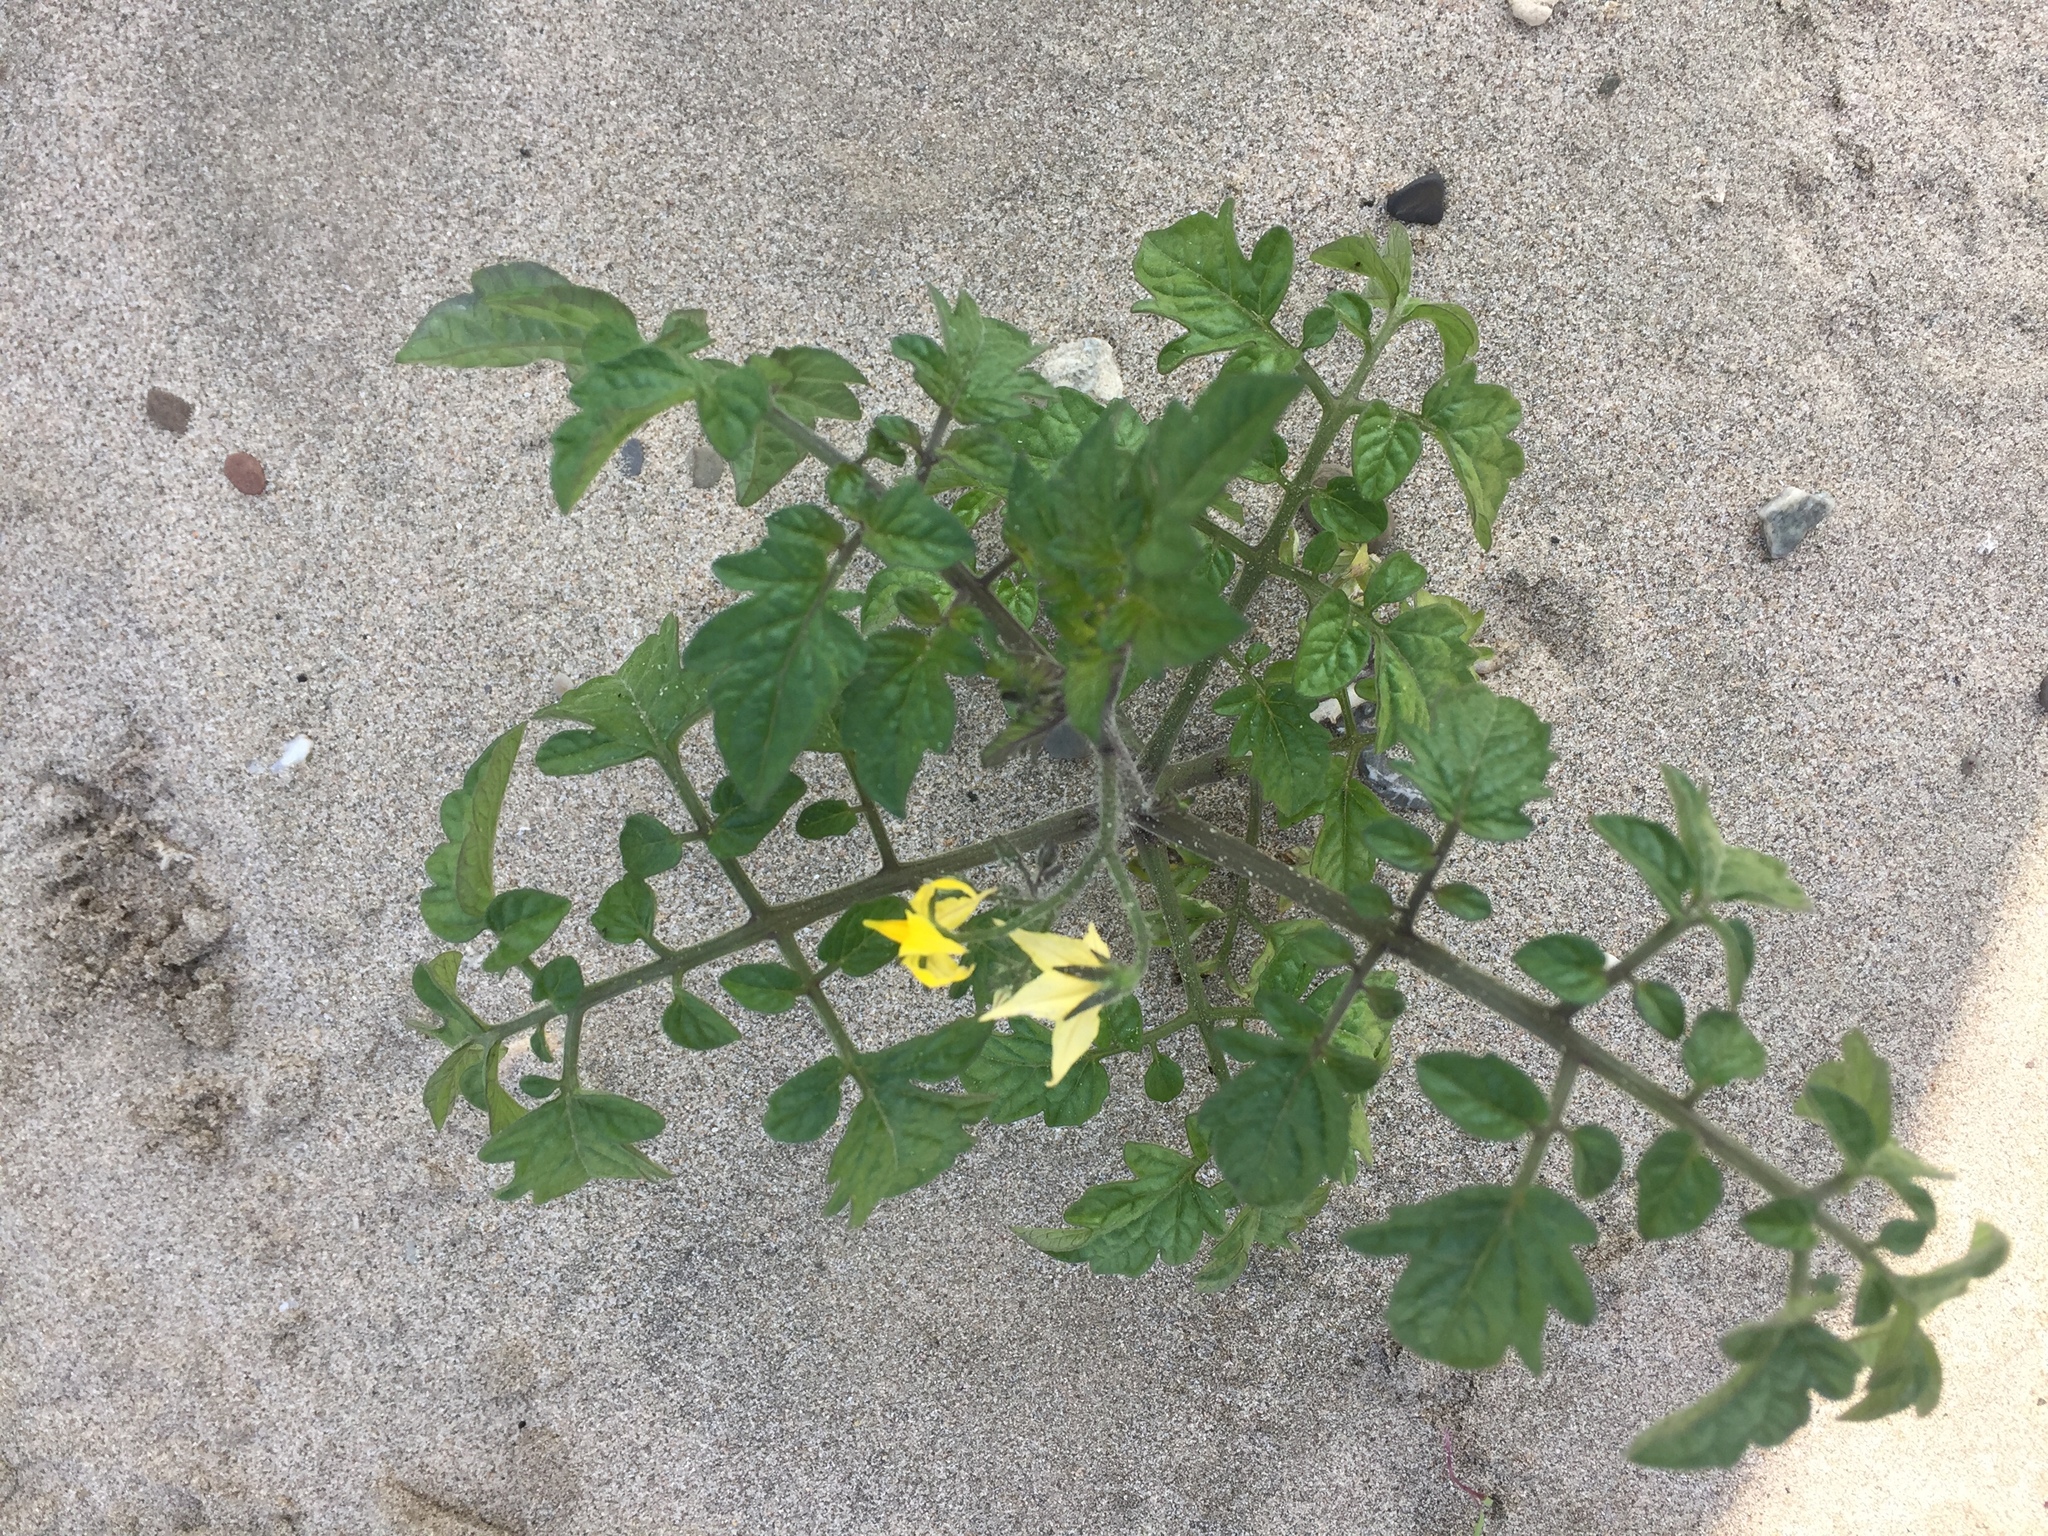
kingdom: Plantae
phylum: Tracheophyta
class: Magnoliopsida
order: Solanales
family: Solanaceae
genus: Solanum
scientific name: Solanum lycopersicum
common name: Garden tomato
